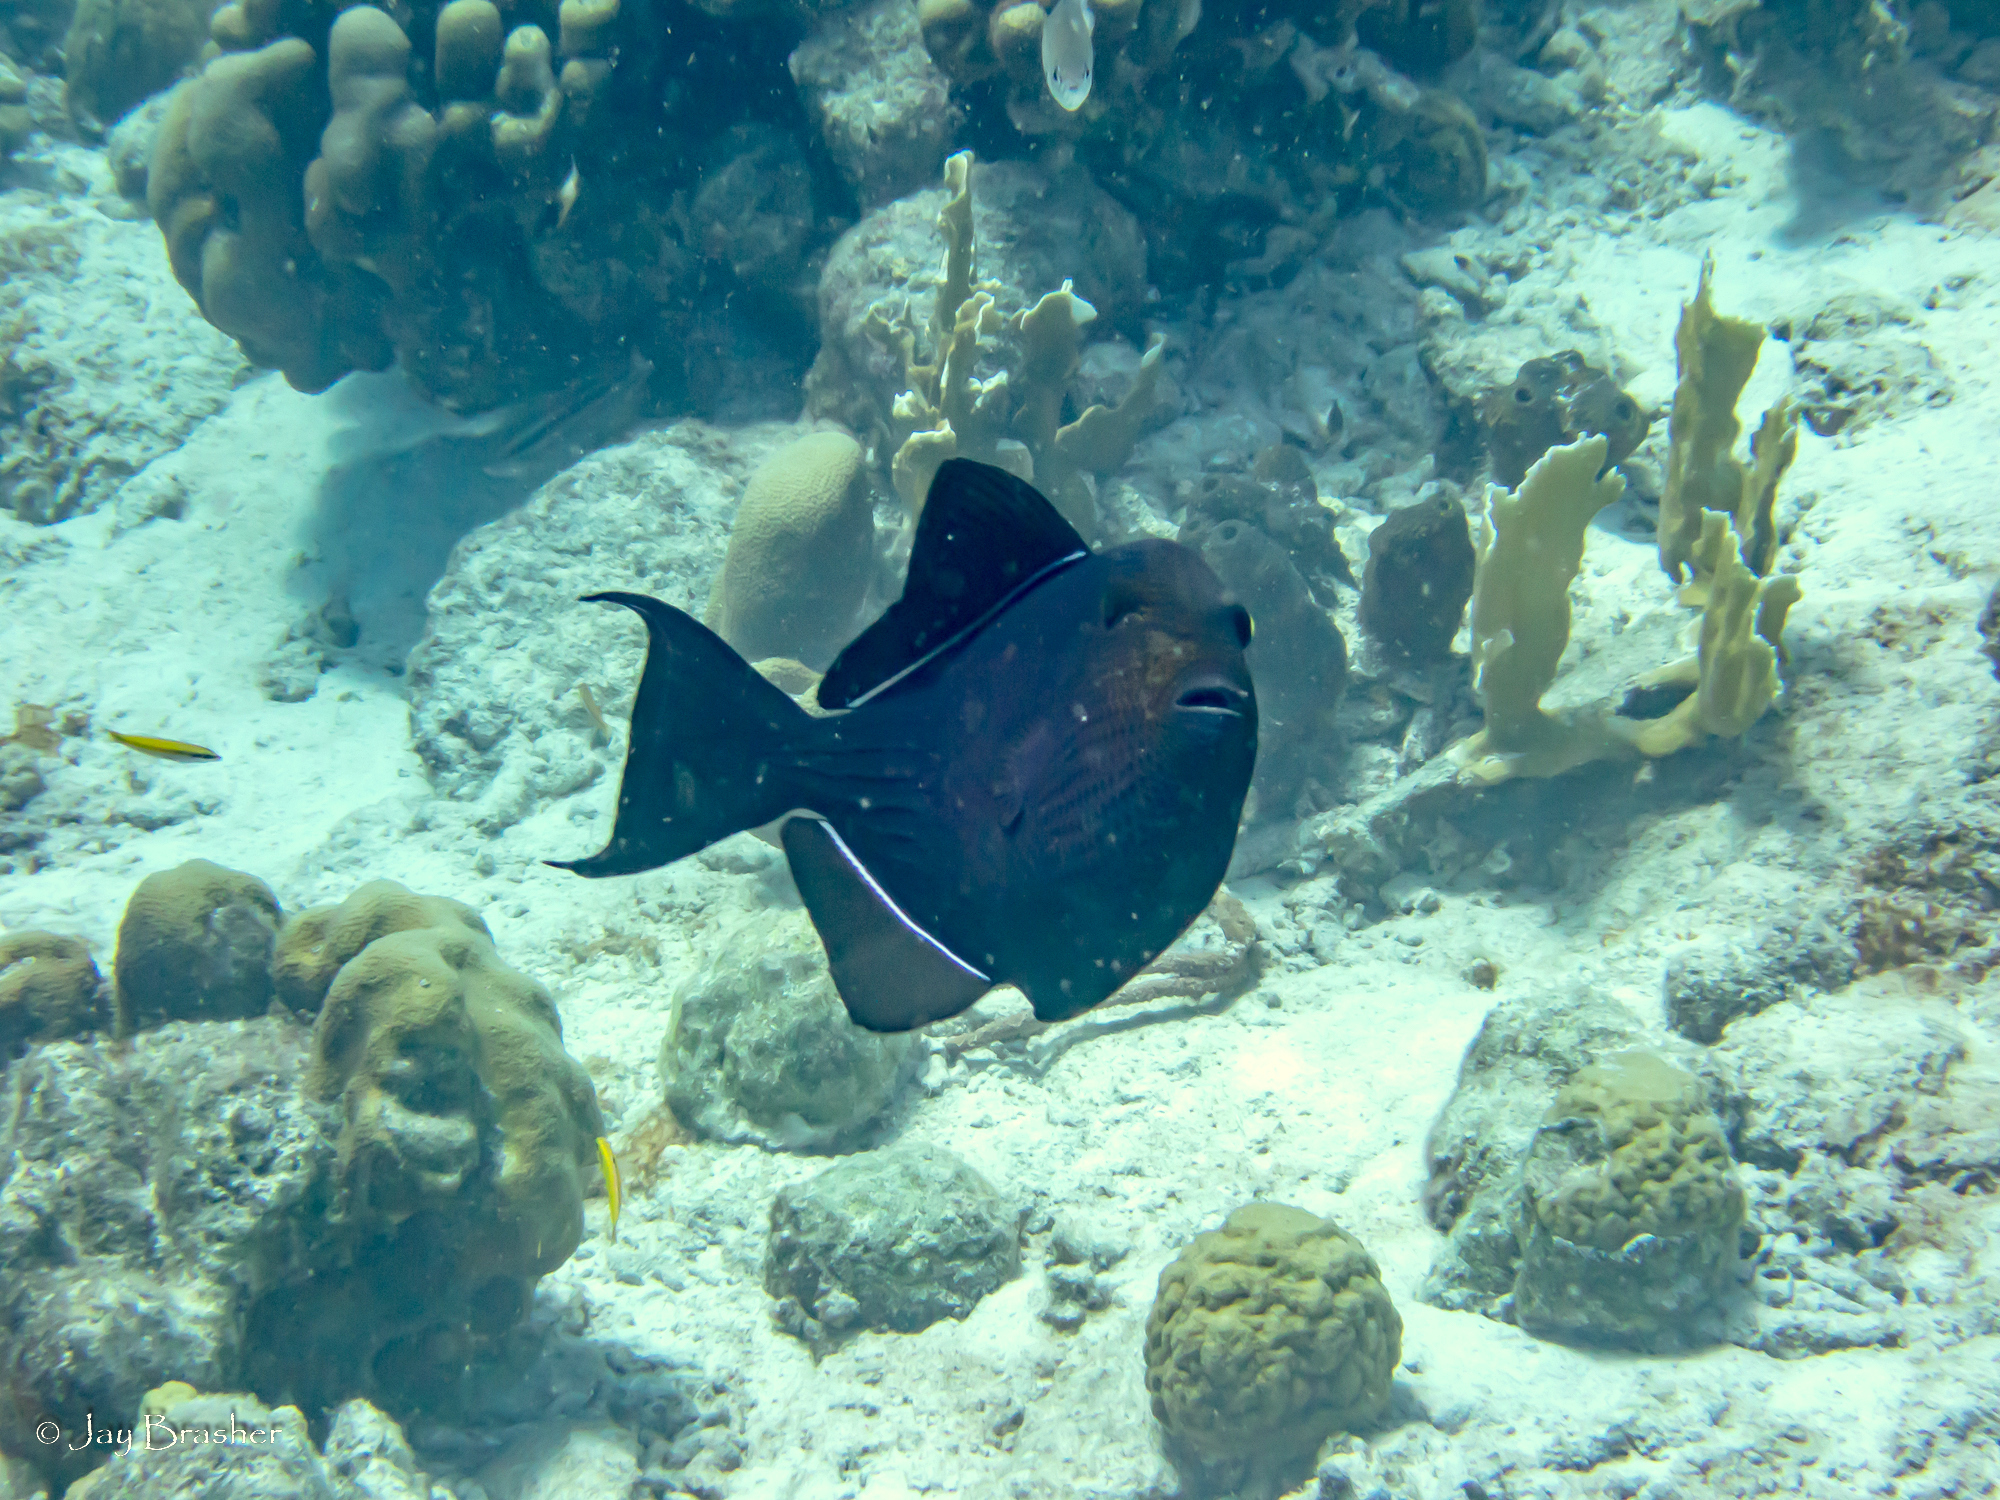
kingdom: Animalia
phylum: Chordata
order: Tetraodontiformes
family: Balistidae
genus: Melichthys
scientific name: Melichthys niger
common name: Black durgon
